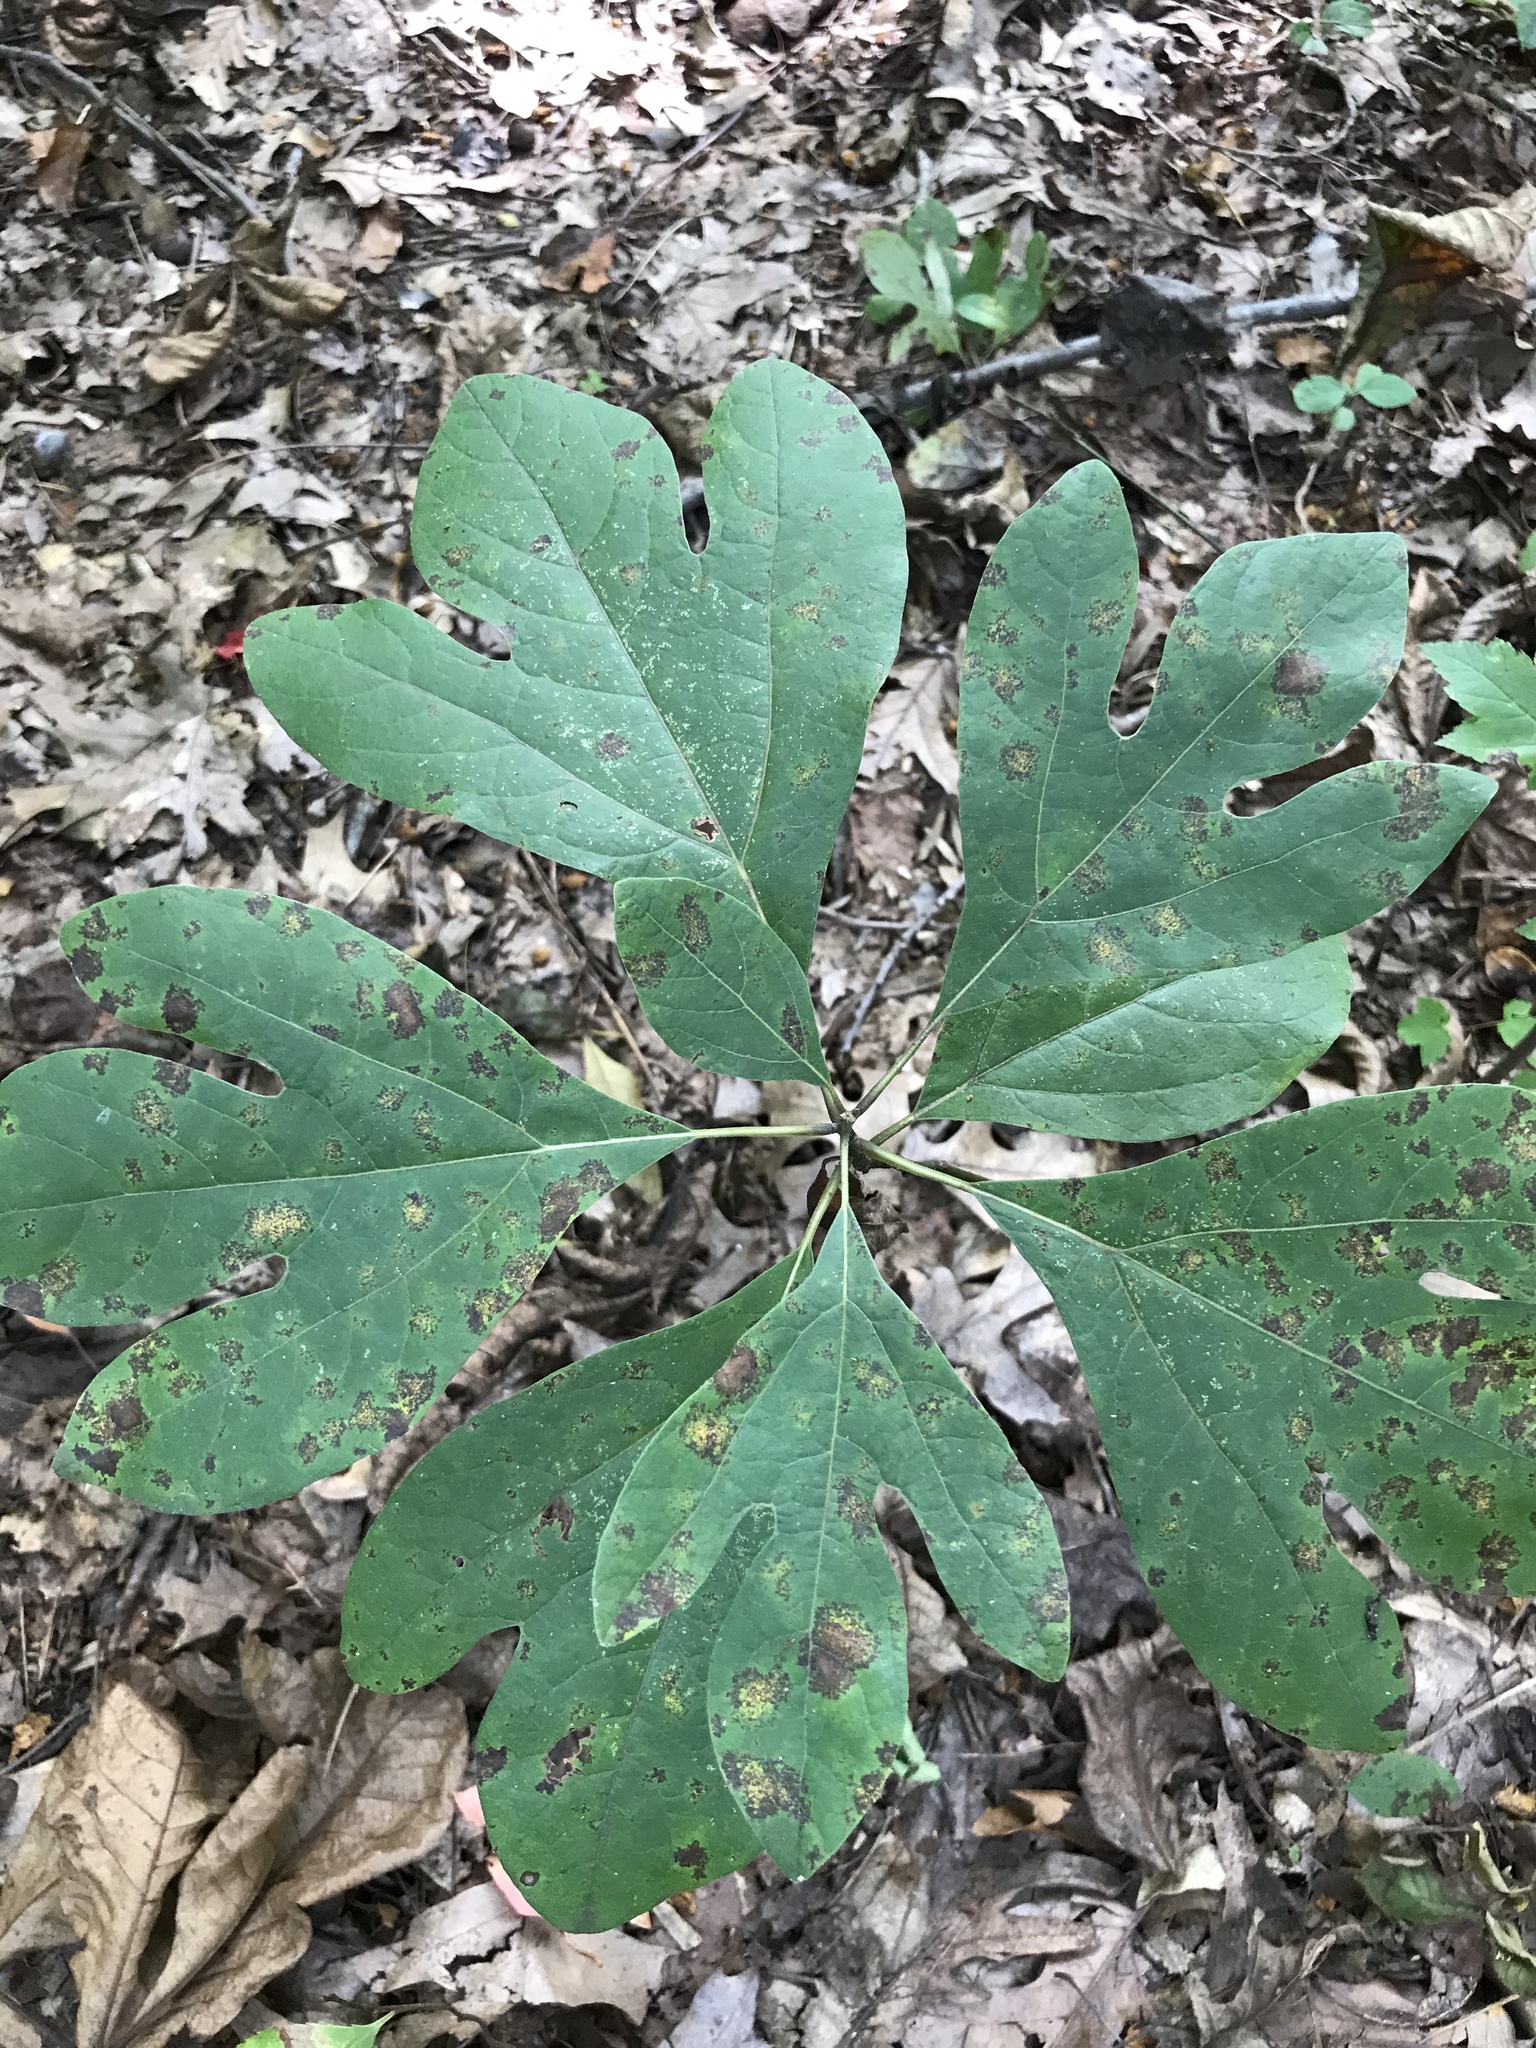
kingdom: Plantae
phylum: Tracheophyta
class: Magnoliopsida
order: Laurales
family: Lauraceae
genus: Sassafras
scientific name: Sassafras albidum
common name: Sassafras
